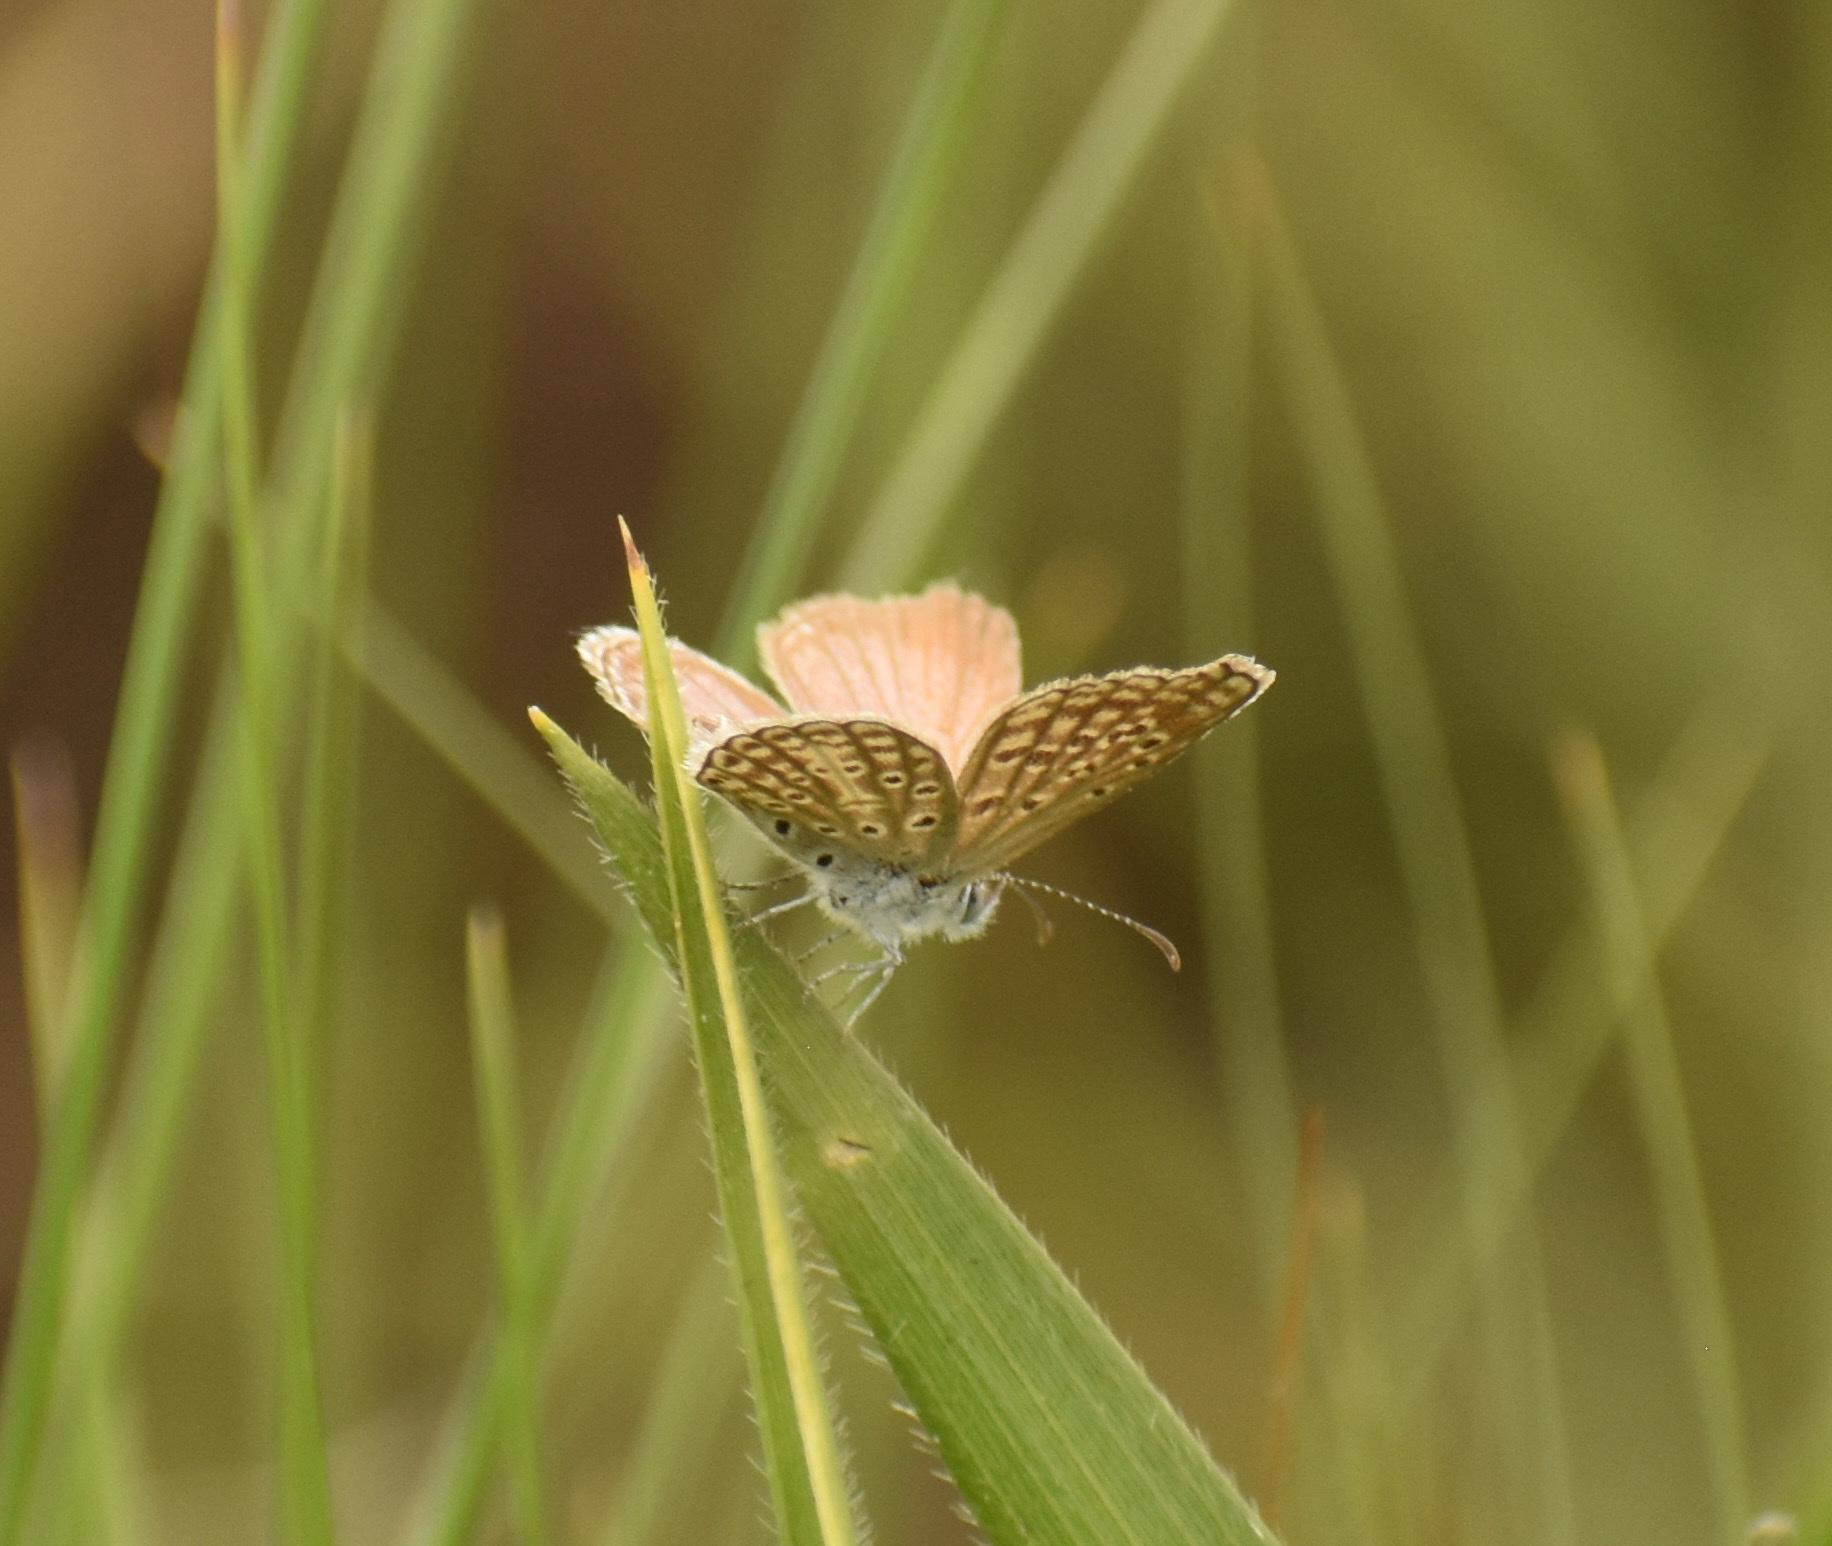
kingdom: Animalia
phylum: Arthropoda
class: Insecta
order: Lepidoptera
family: Lycaenidae
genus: Actizera
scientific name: Actizera lucida
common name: Rayed blue
